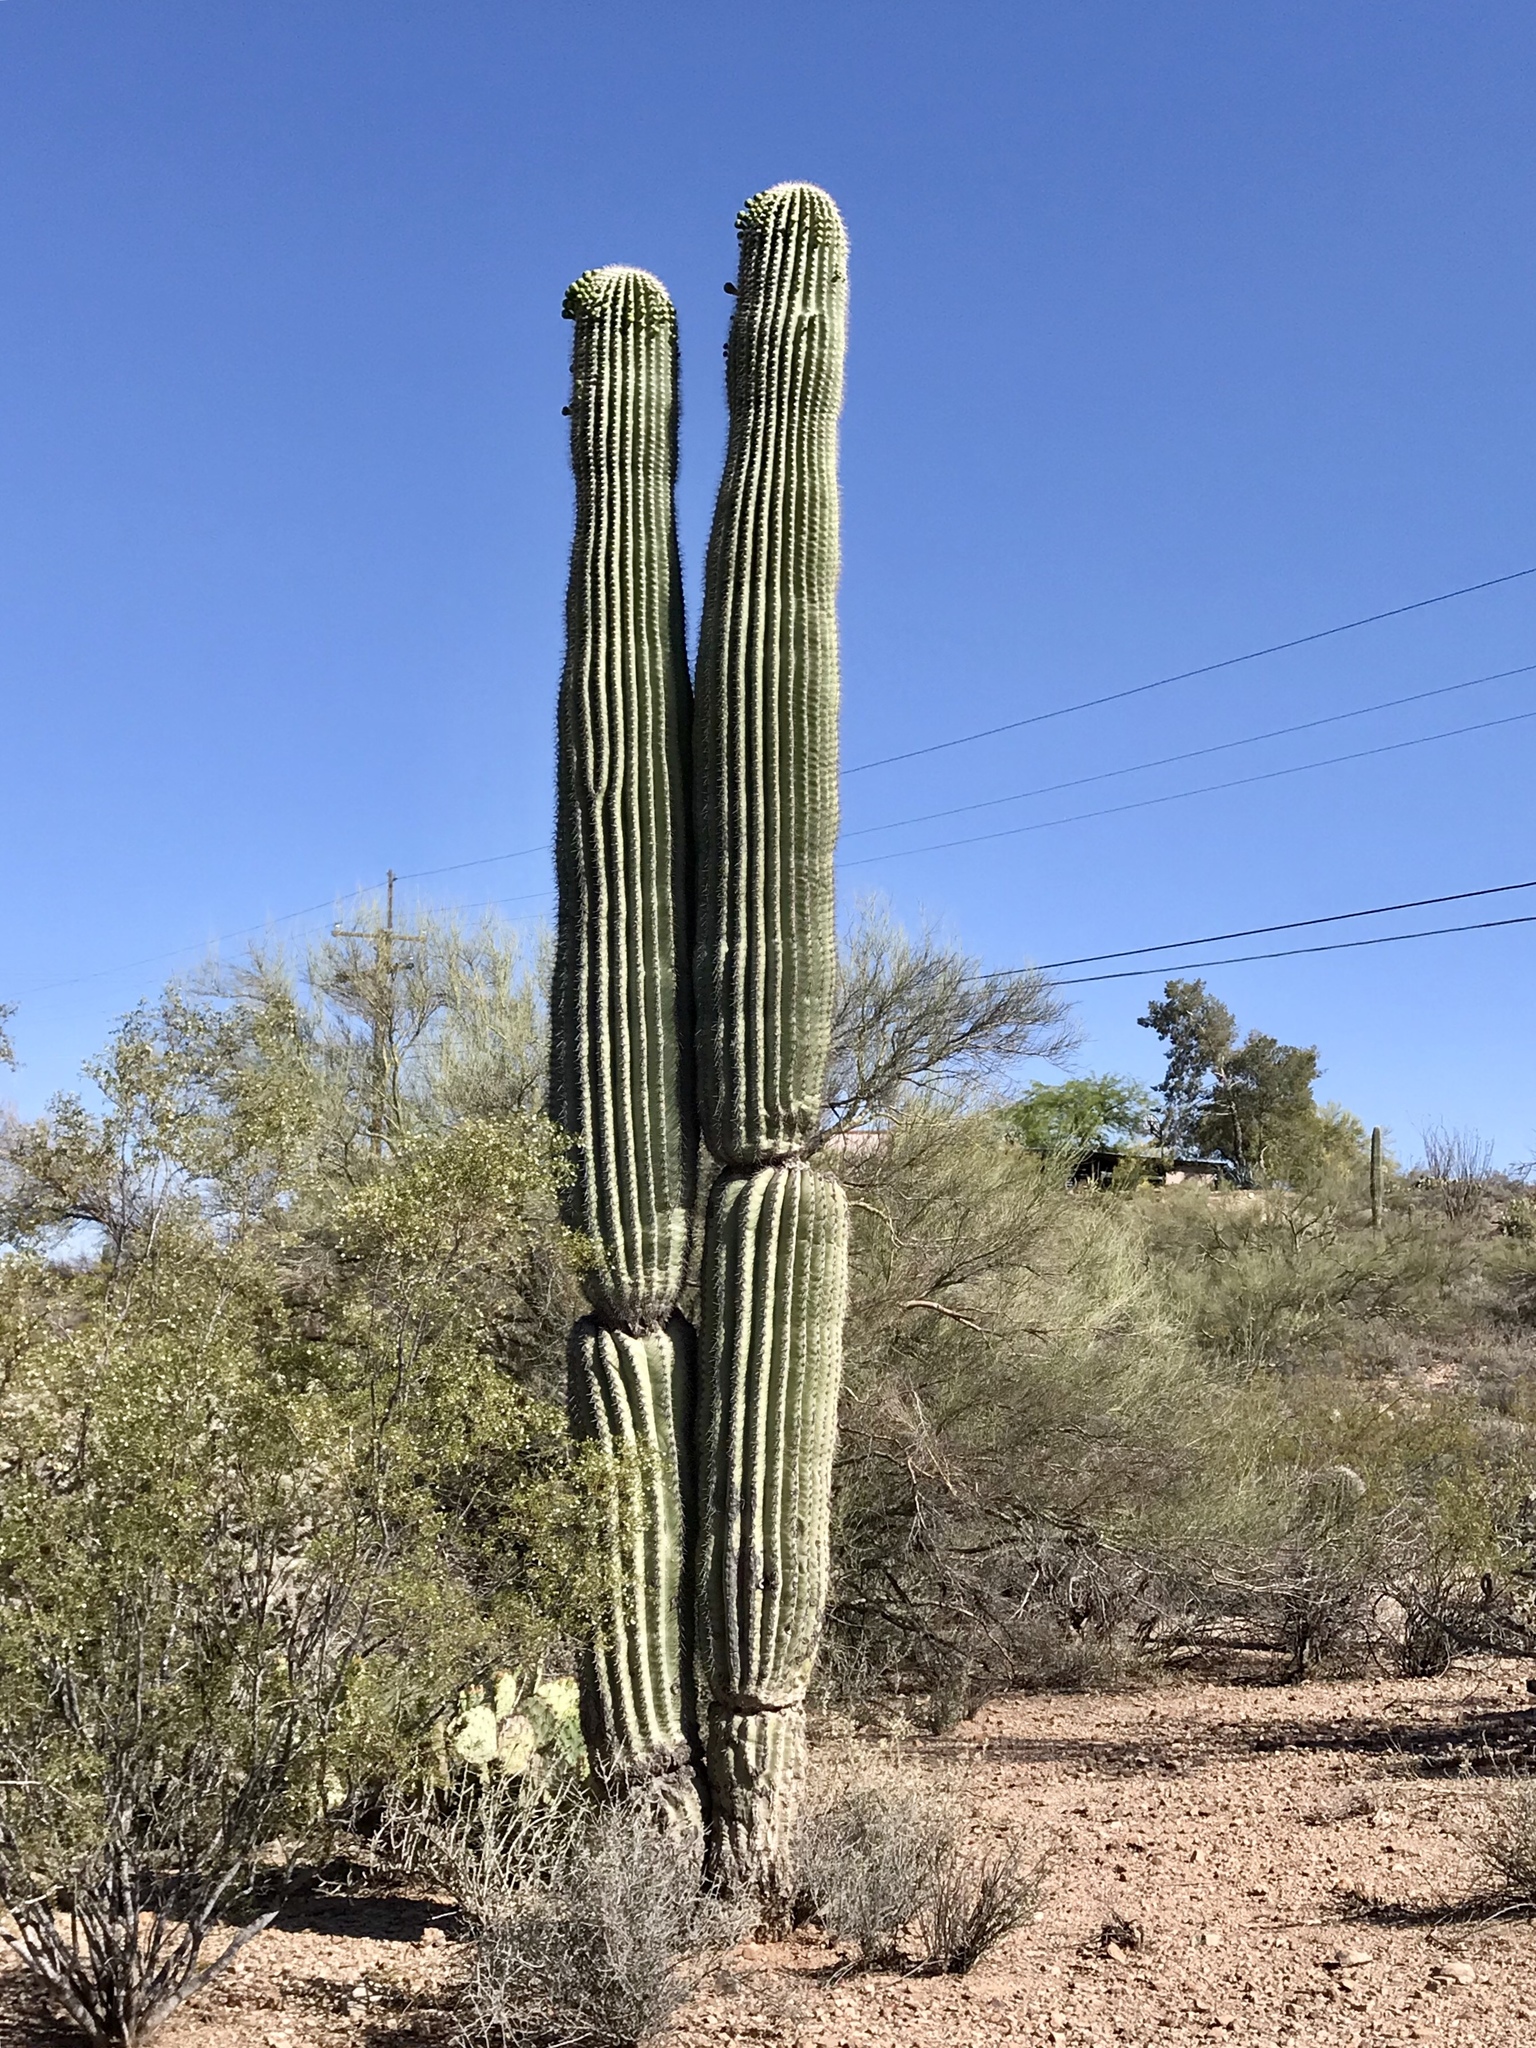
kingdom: Plantae
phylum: Tracheophyta
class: Magnoliopsida
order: Caryophyllales
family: Cactaceae
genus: Carnegiea
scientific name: Carnegiea gigantea
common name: Saguaro
